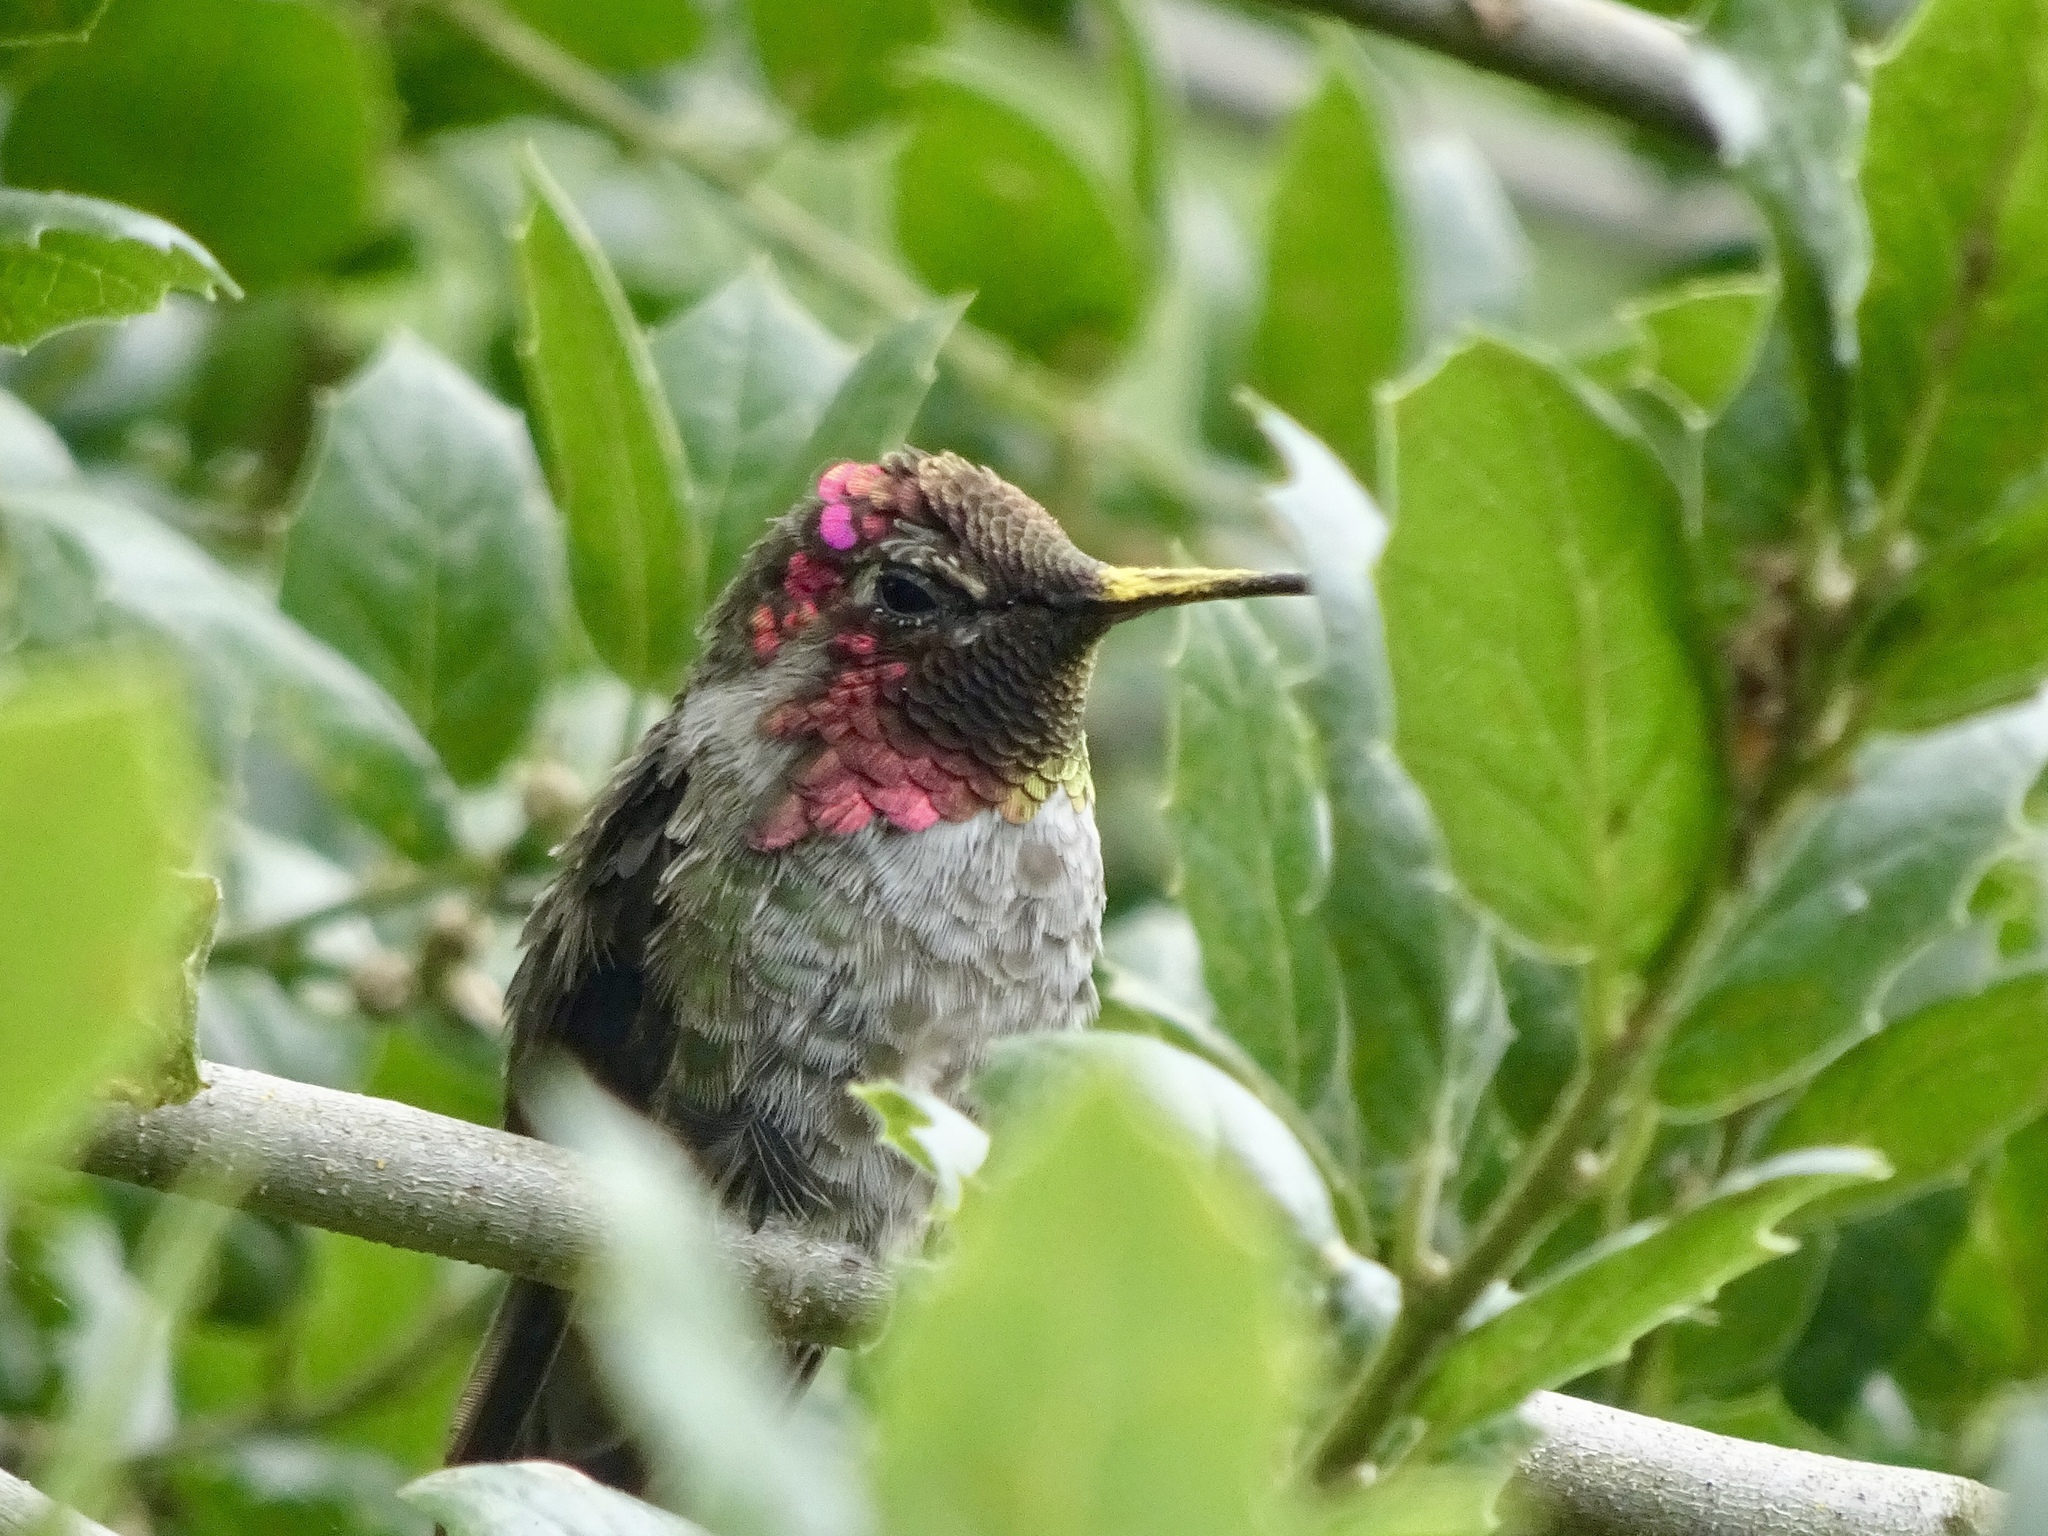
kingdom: Animalia
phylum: Chordata
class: Aves
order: Apodiformes
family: Trochilidae
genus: Calypte
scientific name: Calypte anna
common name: Anna's hummingbird
